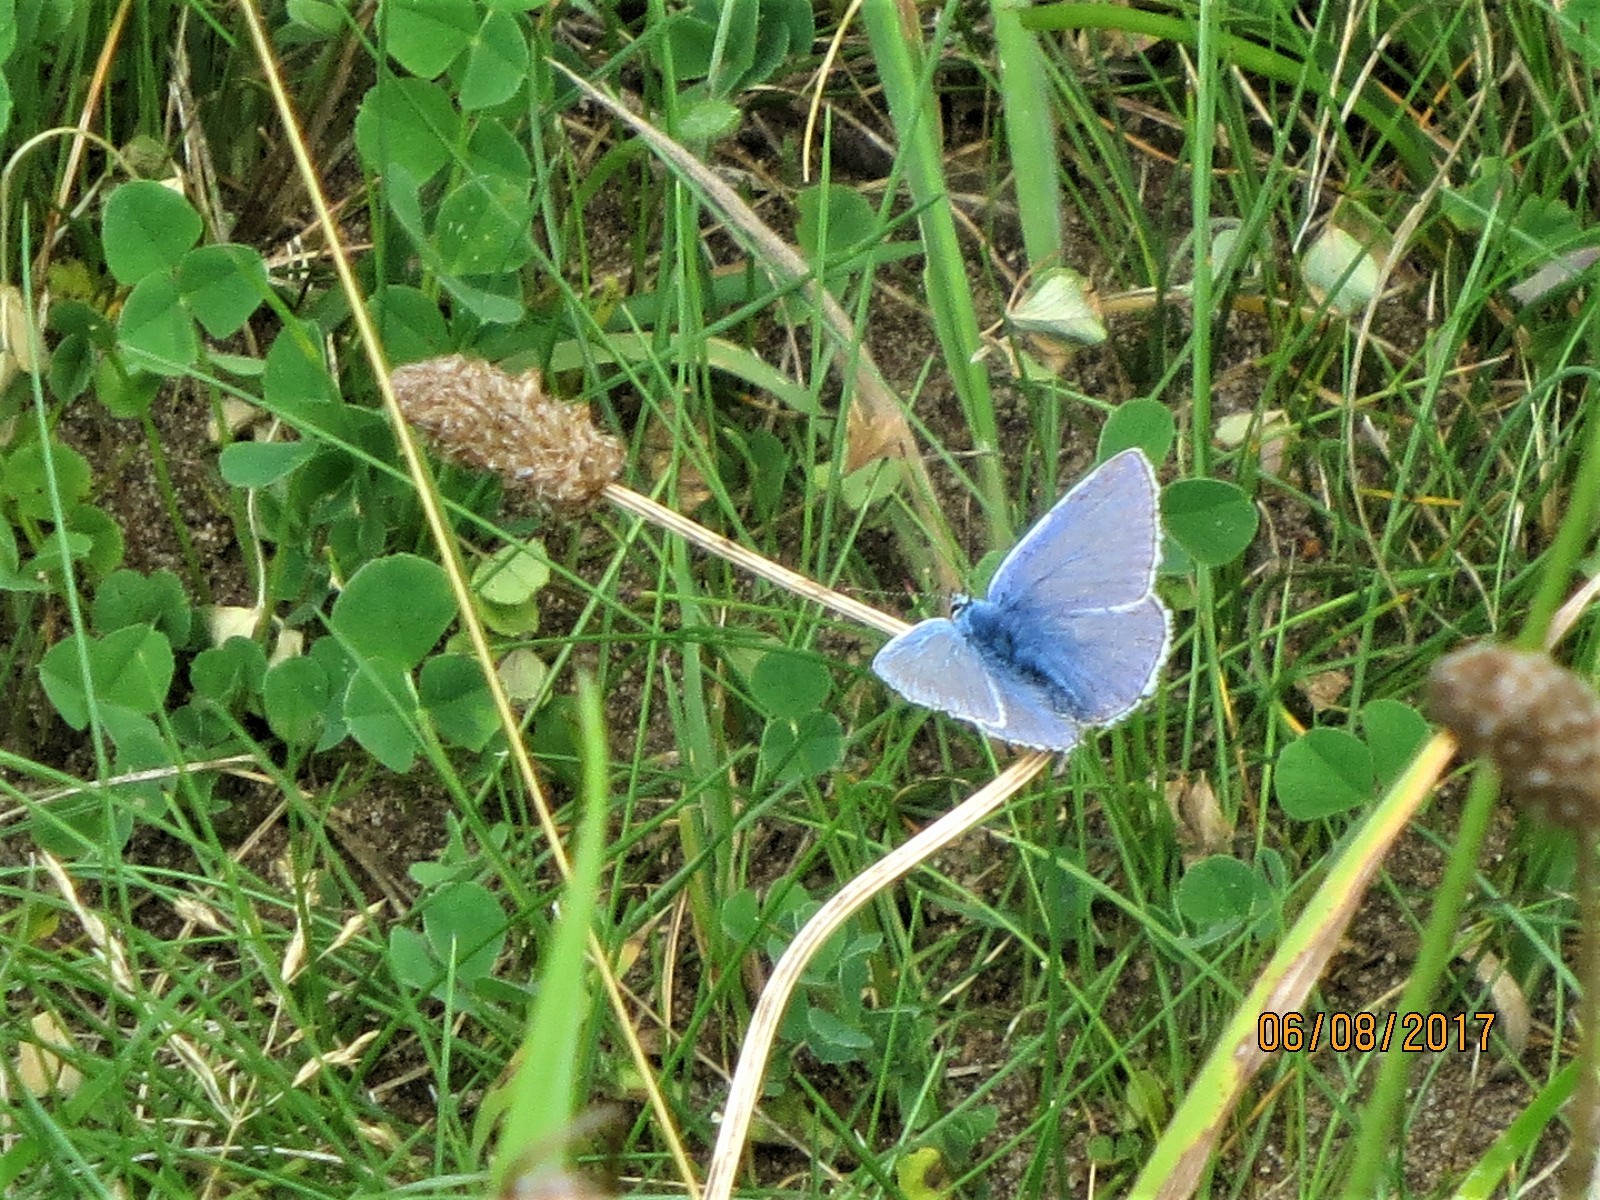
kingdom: Animalia
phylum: Arthropoda
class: Insecta
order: Lepidoptera
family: Lycaenidae
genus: Polyommatus
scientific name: Polyommatus icarus
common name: Common blue
